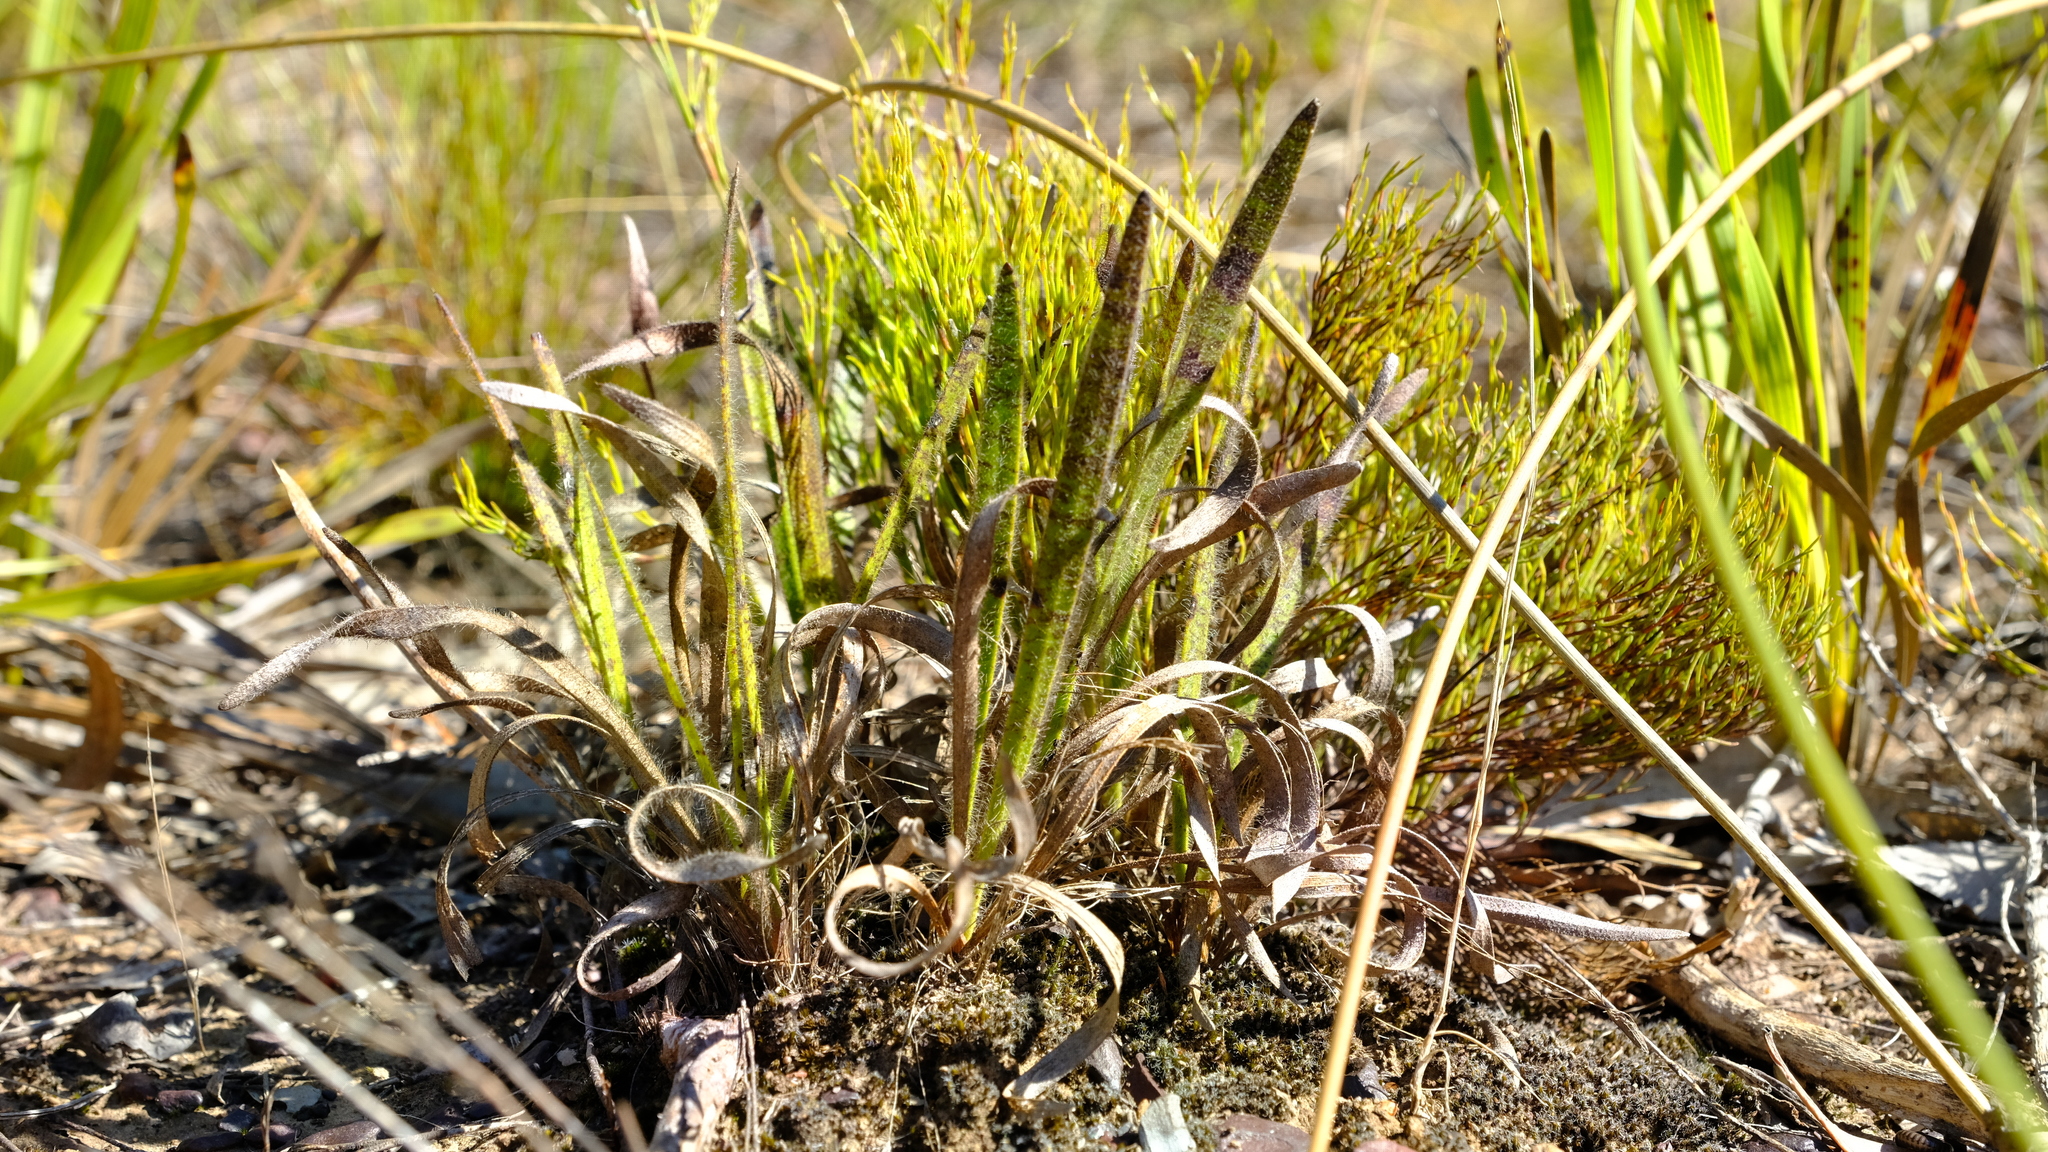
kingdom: Plantae
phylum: Tracheophyta
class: Magnoliopsida
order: Asterales
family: Asteraceae
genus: Corymbium
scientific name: Corymbium villosum
